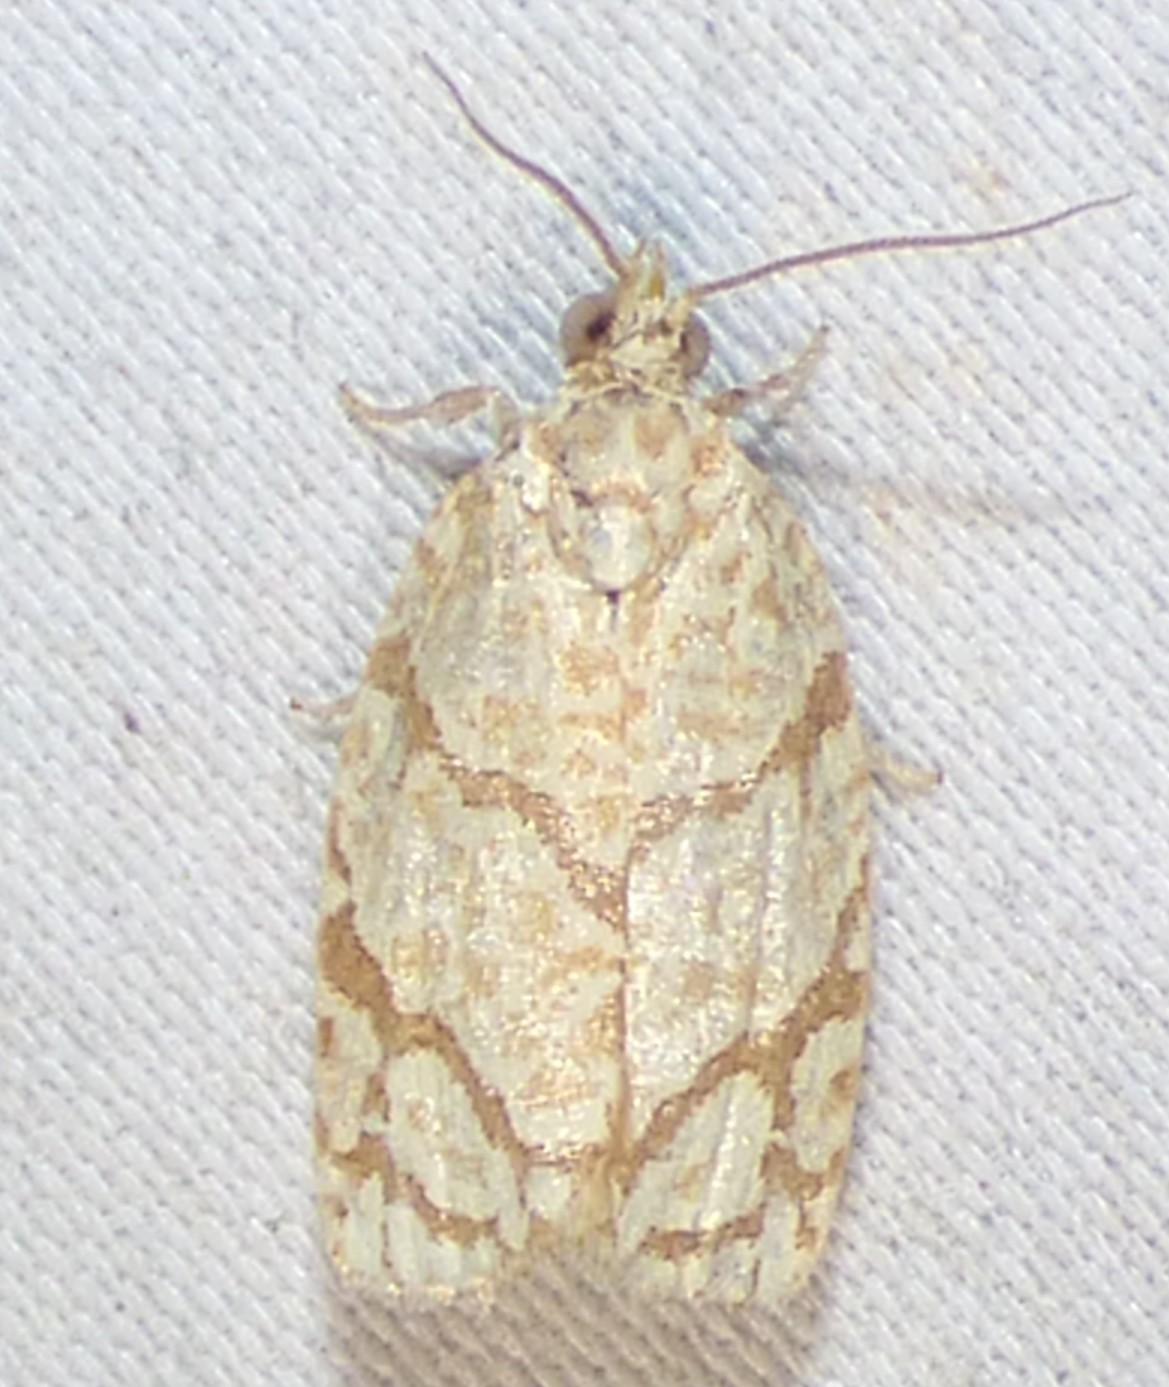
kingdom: Animalia
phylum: Arthropoda
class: Insecta
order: Lepidoptera
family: Tortricidae
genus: Argyrotaenia
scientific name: Argyrotaenia quercifoliana
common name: Yellow-winged oak leafroller moth
